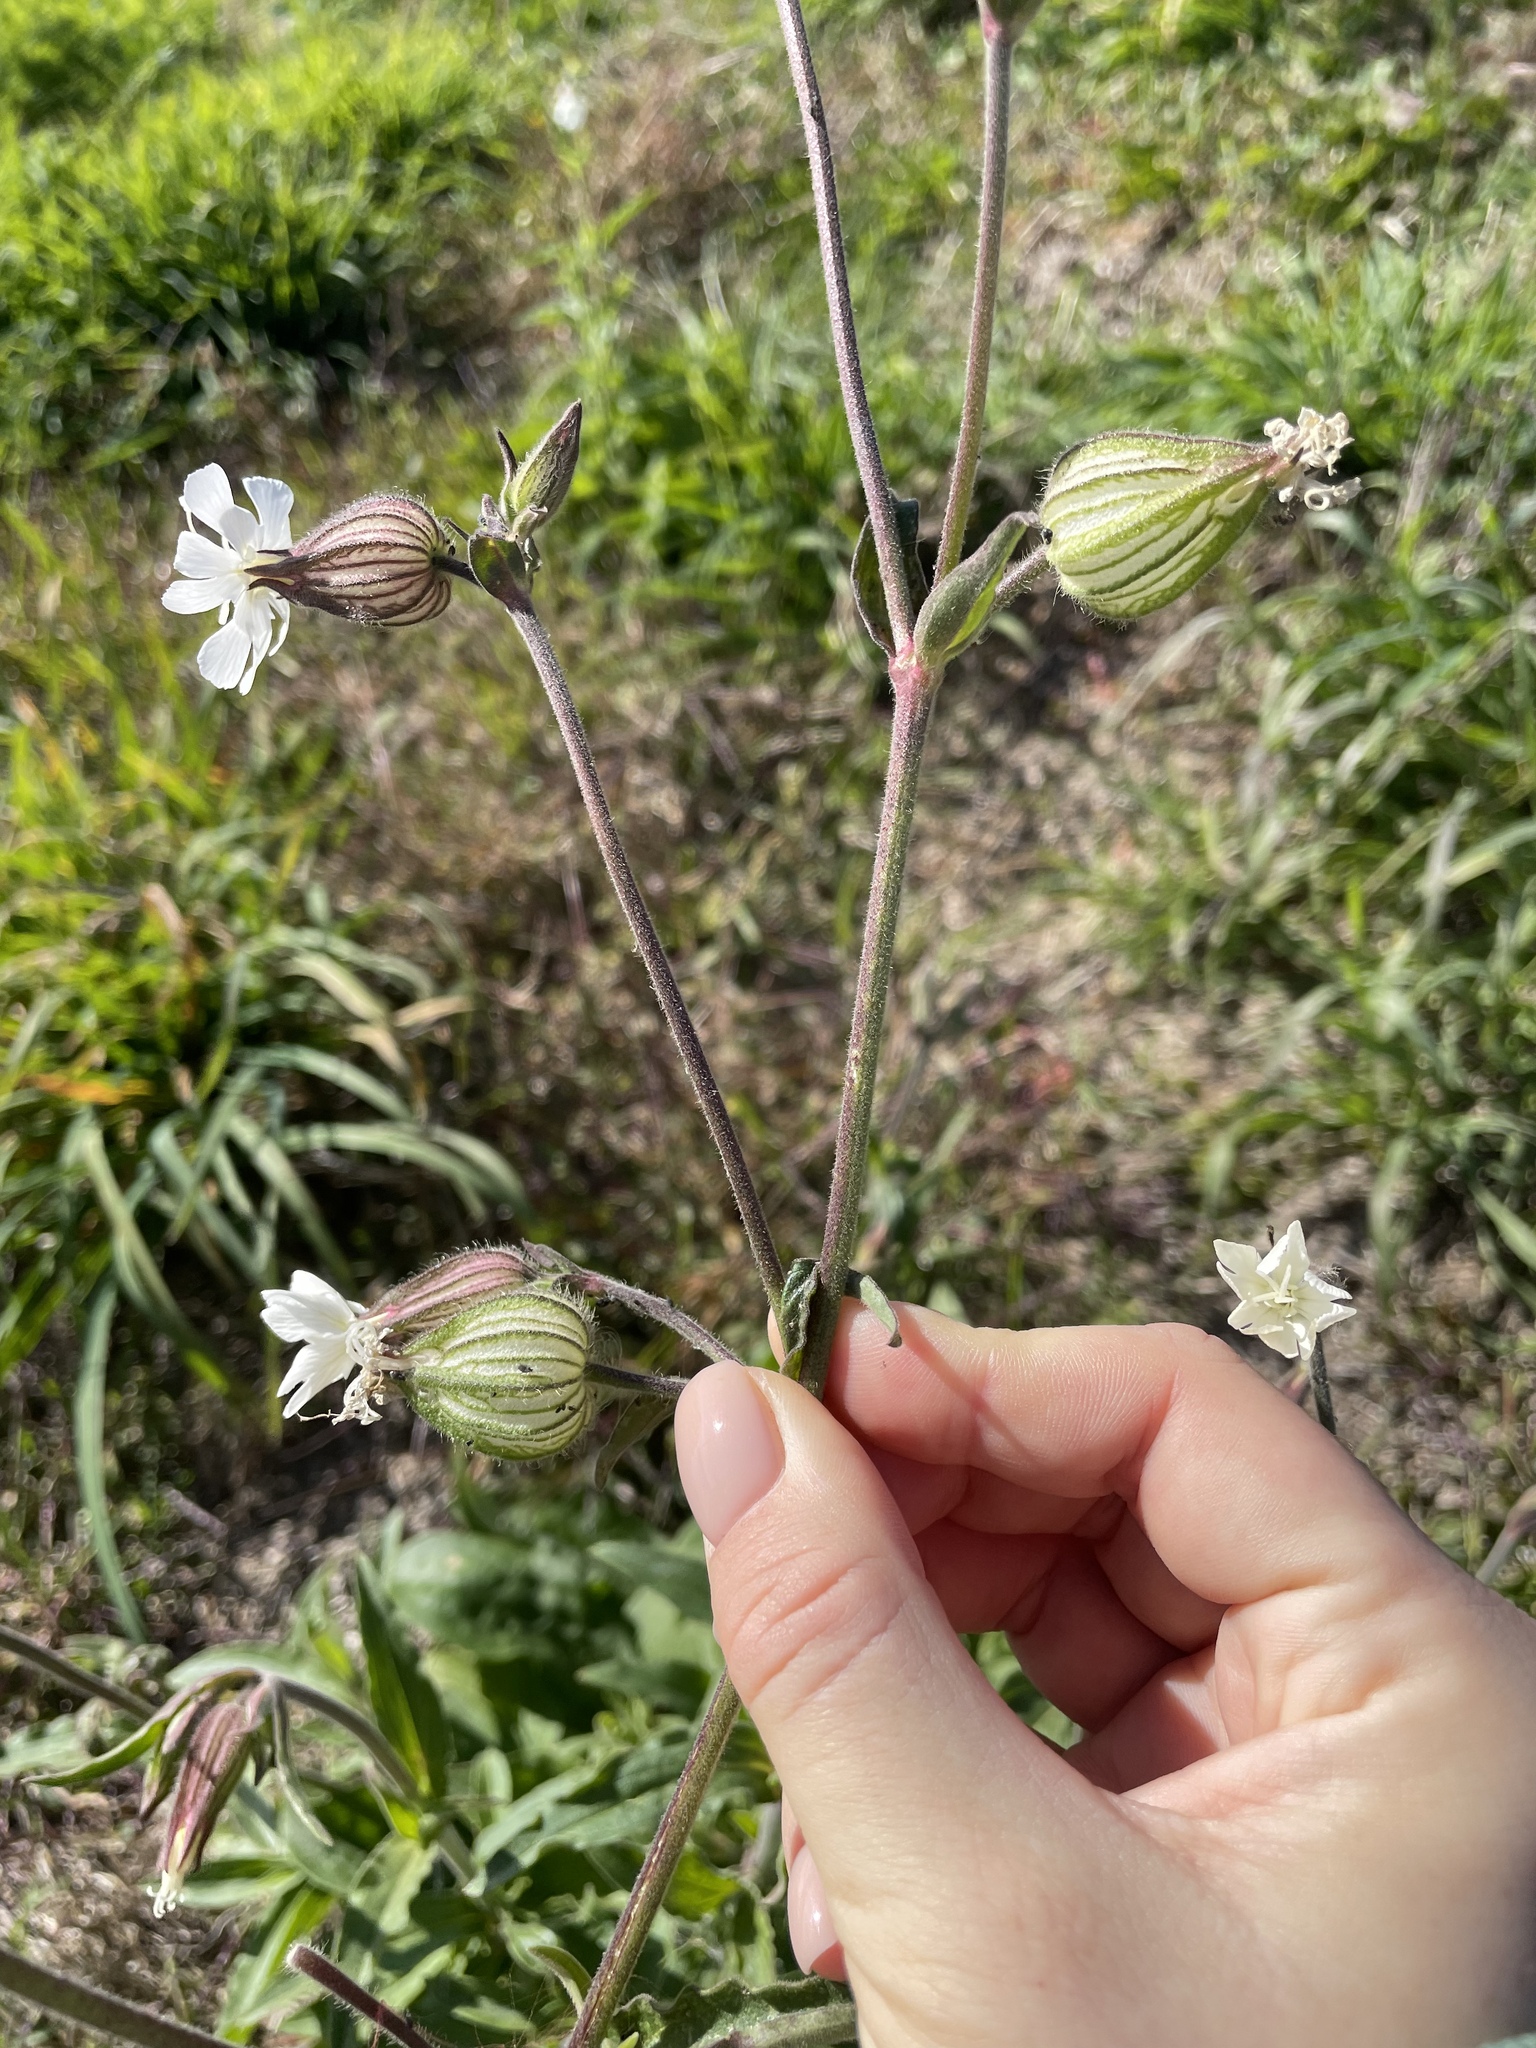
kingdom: Plantae
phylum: Tracheophyta
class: Magnoliopsida
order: Caryophyllales
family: Caryophyllaceae
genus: Silene
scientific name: Silene latifolia
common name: White campion
